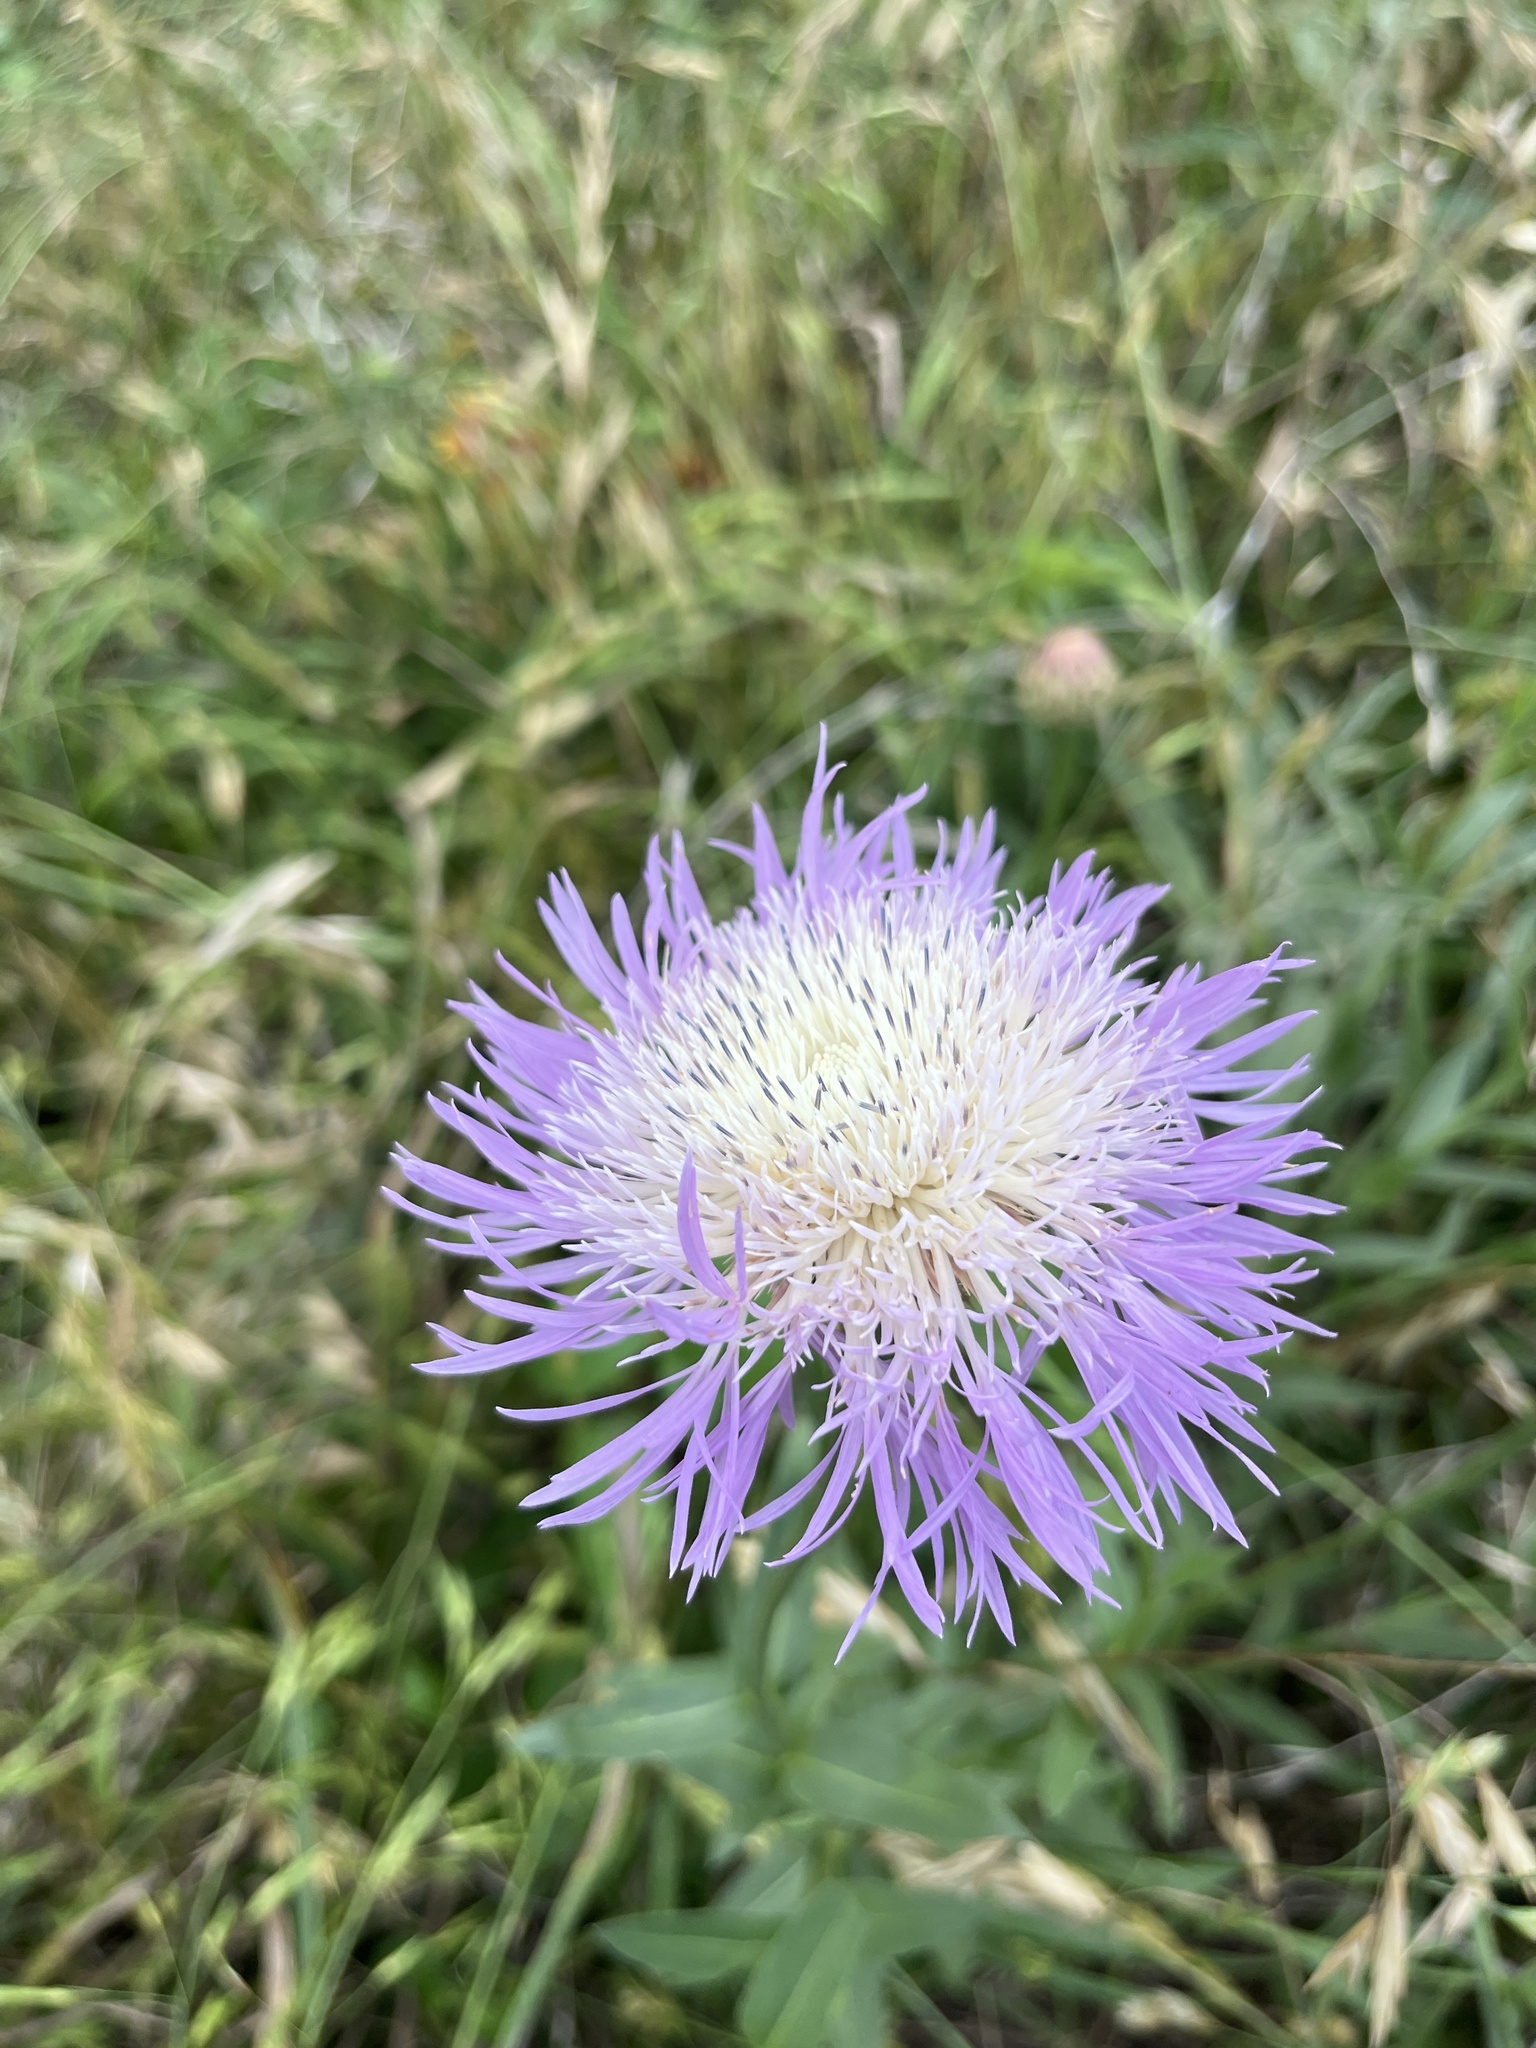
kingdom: Plantae
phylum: Tracheophyta
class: Magnoliopsida
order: Asterales
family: Asteraceae
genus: Plectocephalus
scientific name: Plectocephalus americanus
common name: American basket-flower
